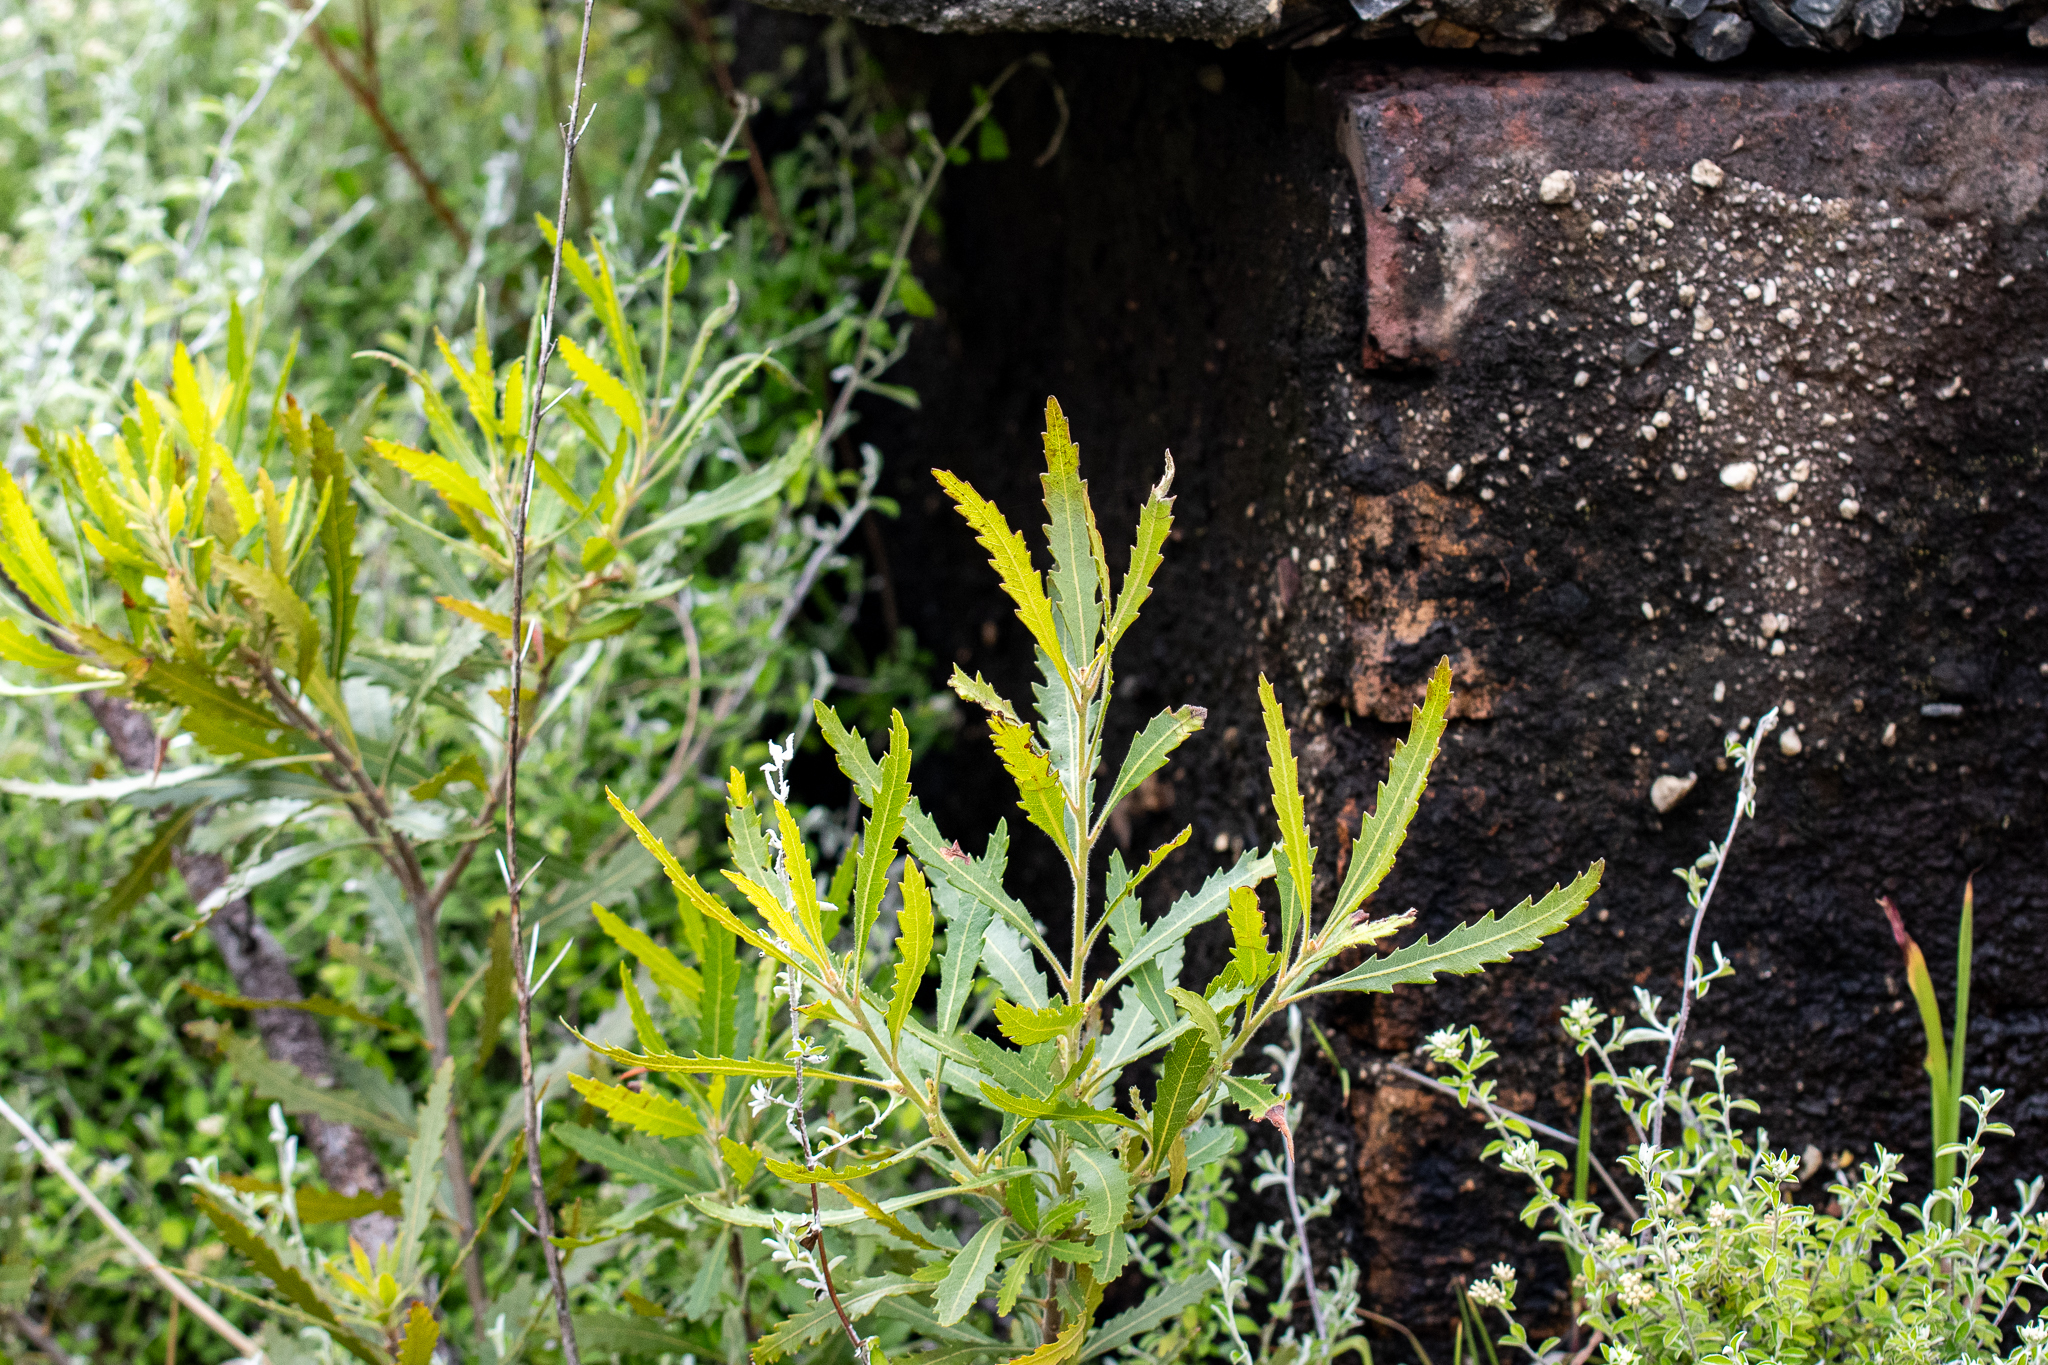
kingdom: Plantae
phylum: Tracheophyta
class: Magnoliopsida
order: Fagales
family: Myricaceae
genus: Morella
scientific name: Morella serrata
